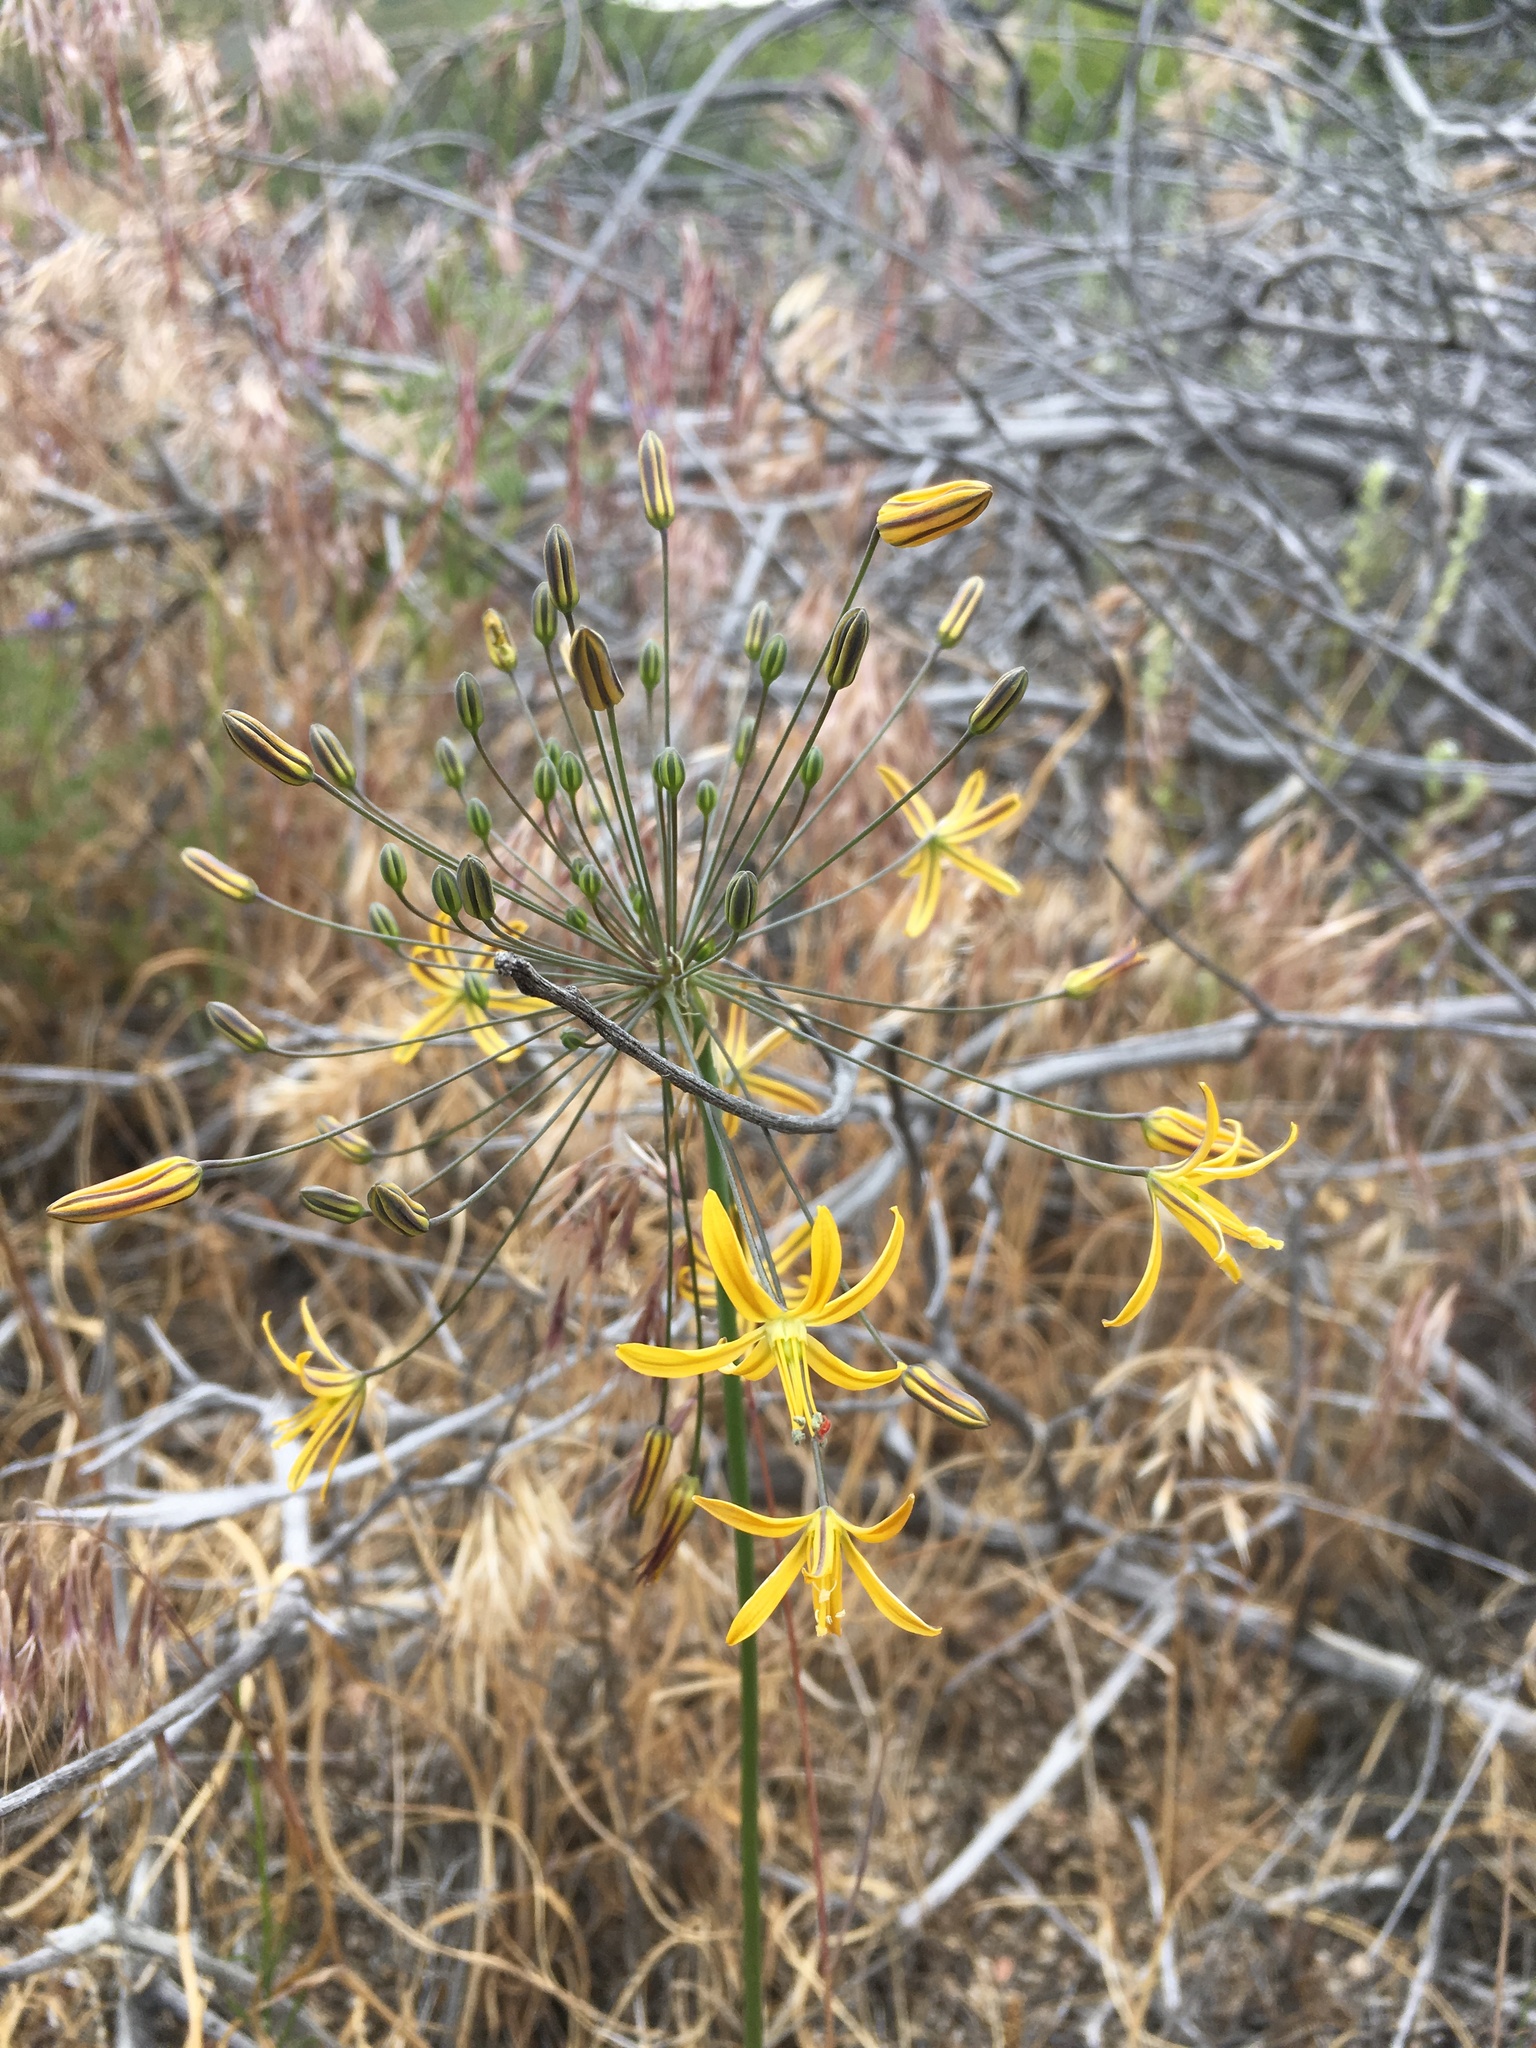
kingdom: Plantae
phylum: Tracheophyta
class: Liliopsida
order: Asparagales
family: Asparagaceae
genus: Bloomeria
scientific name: Bloomeria crocea
